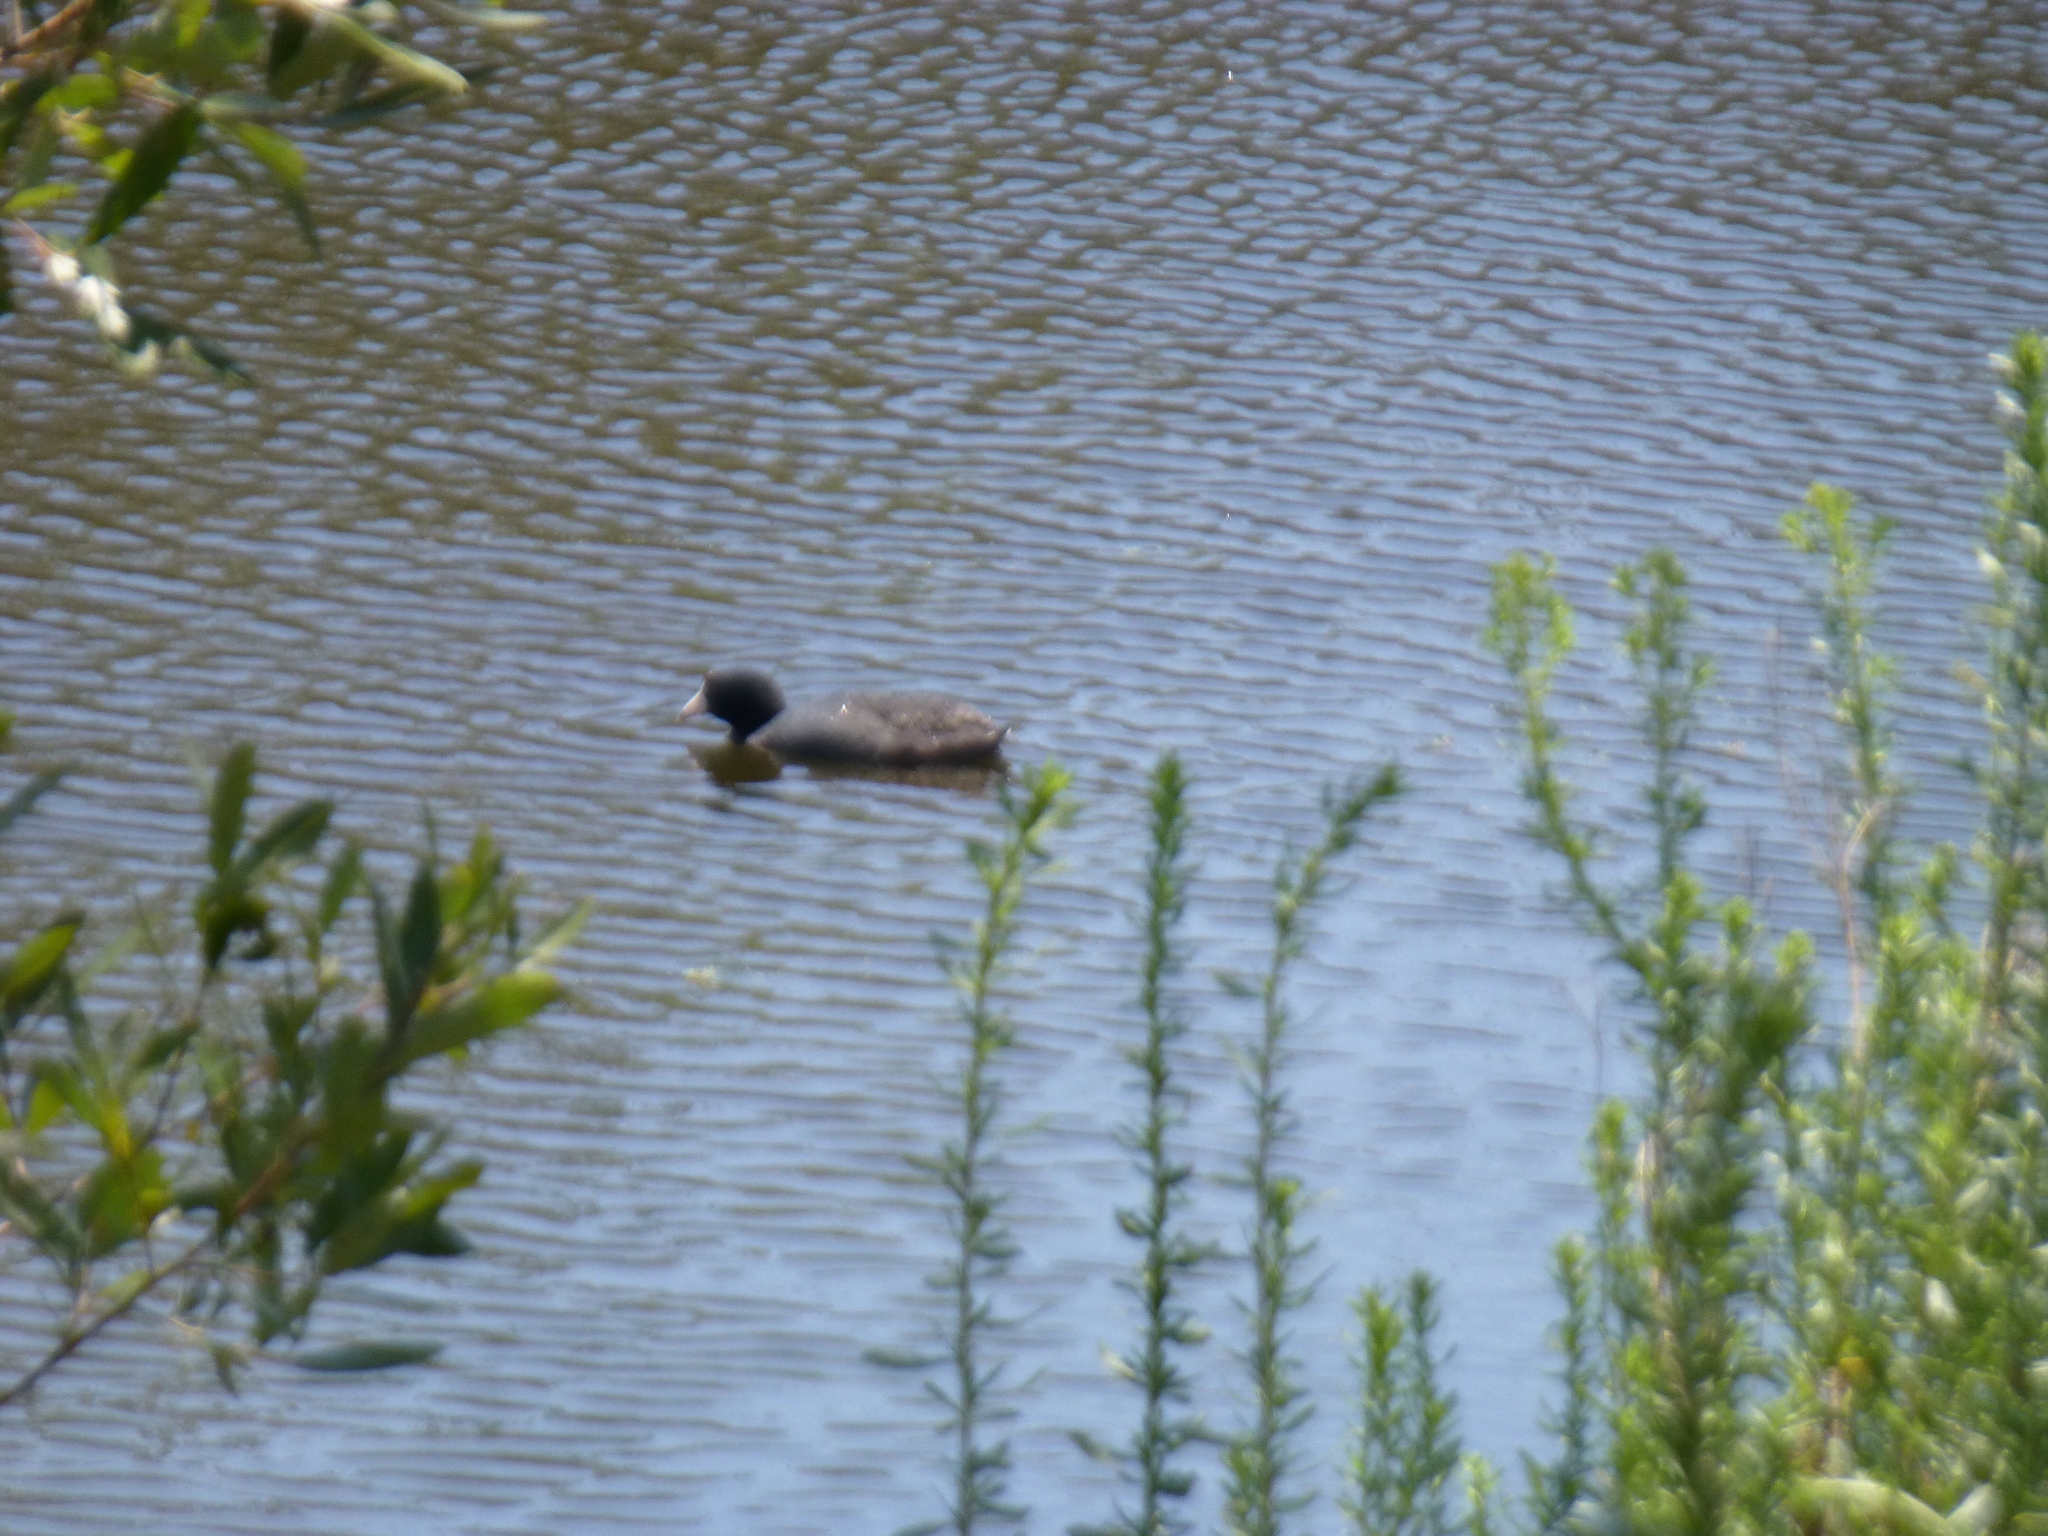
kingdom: Animalia
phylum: Chordata
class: Aves
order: Gruiformes
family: Rallidae
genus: Fulica
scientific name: Fulica americana
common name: American coot
